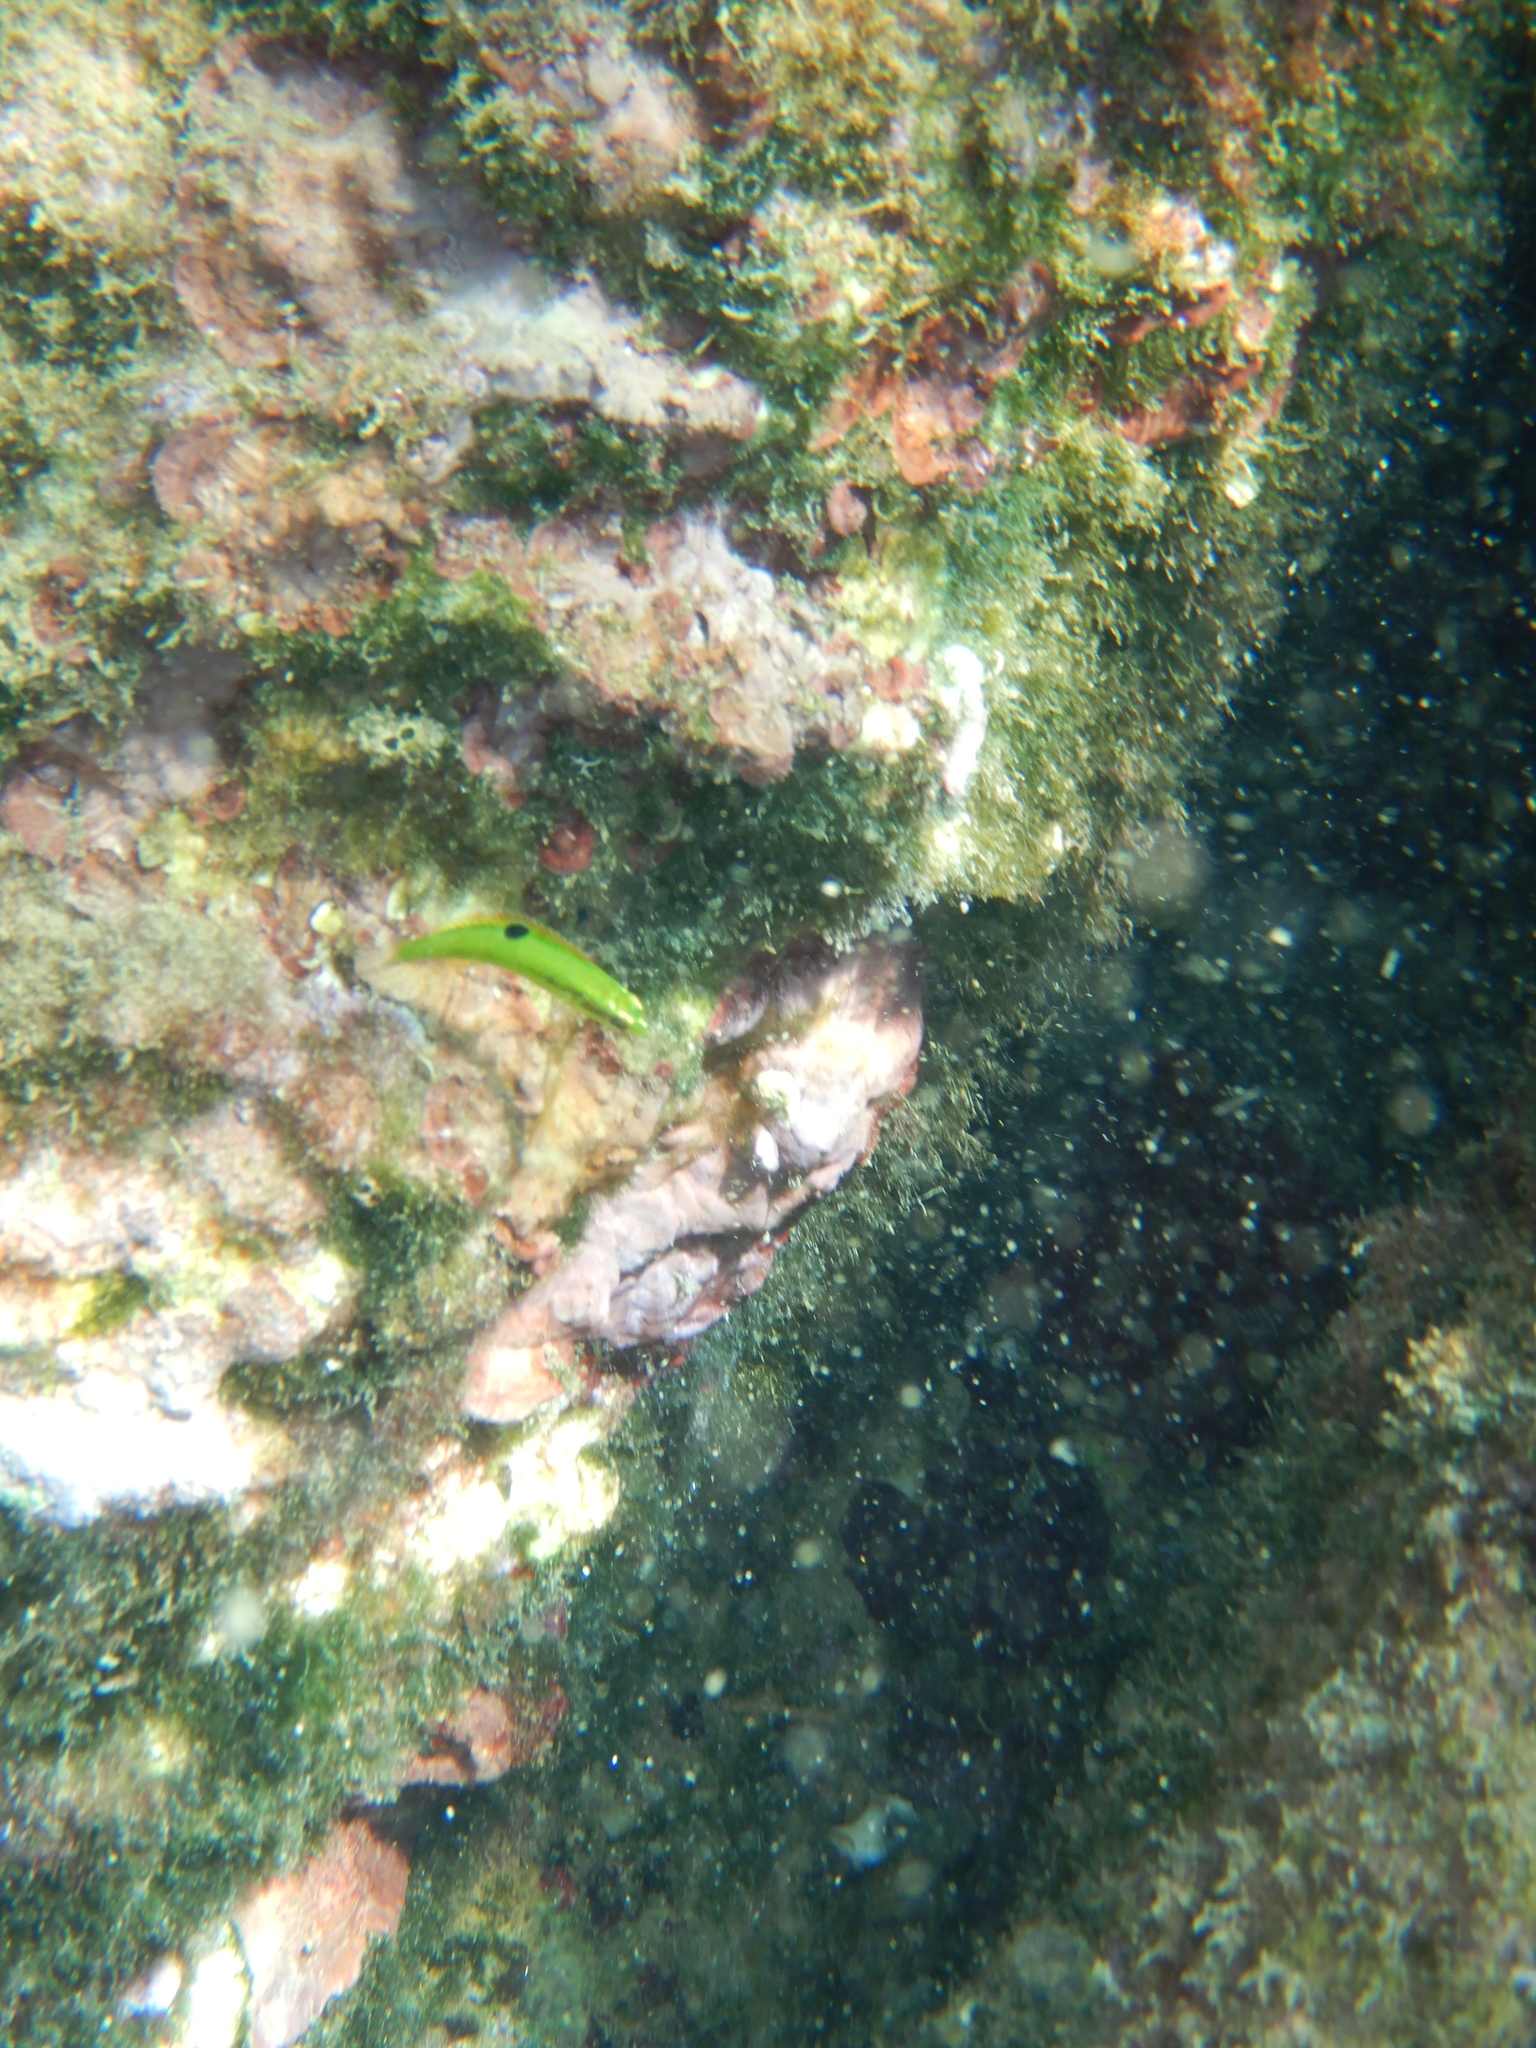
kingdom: Animalia
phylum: Chordata
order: Perciformes
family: Labridae
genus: Thalassoma
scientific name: Thalassoma pavo
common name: Ornate wrasse
